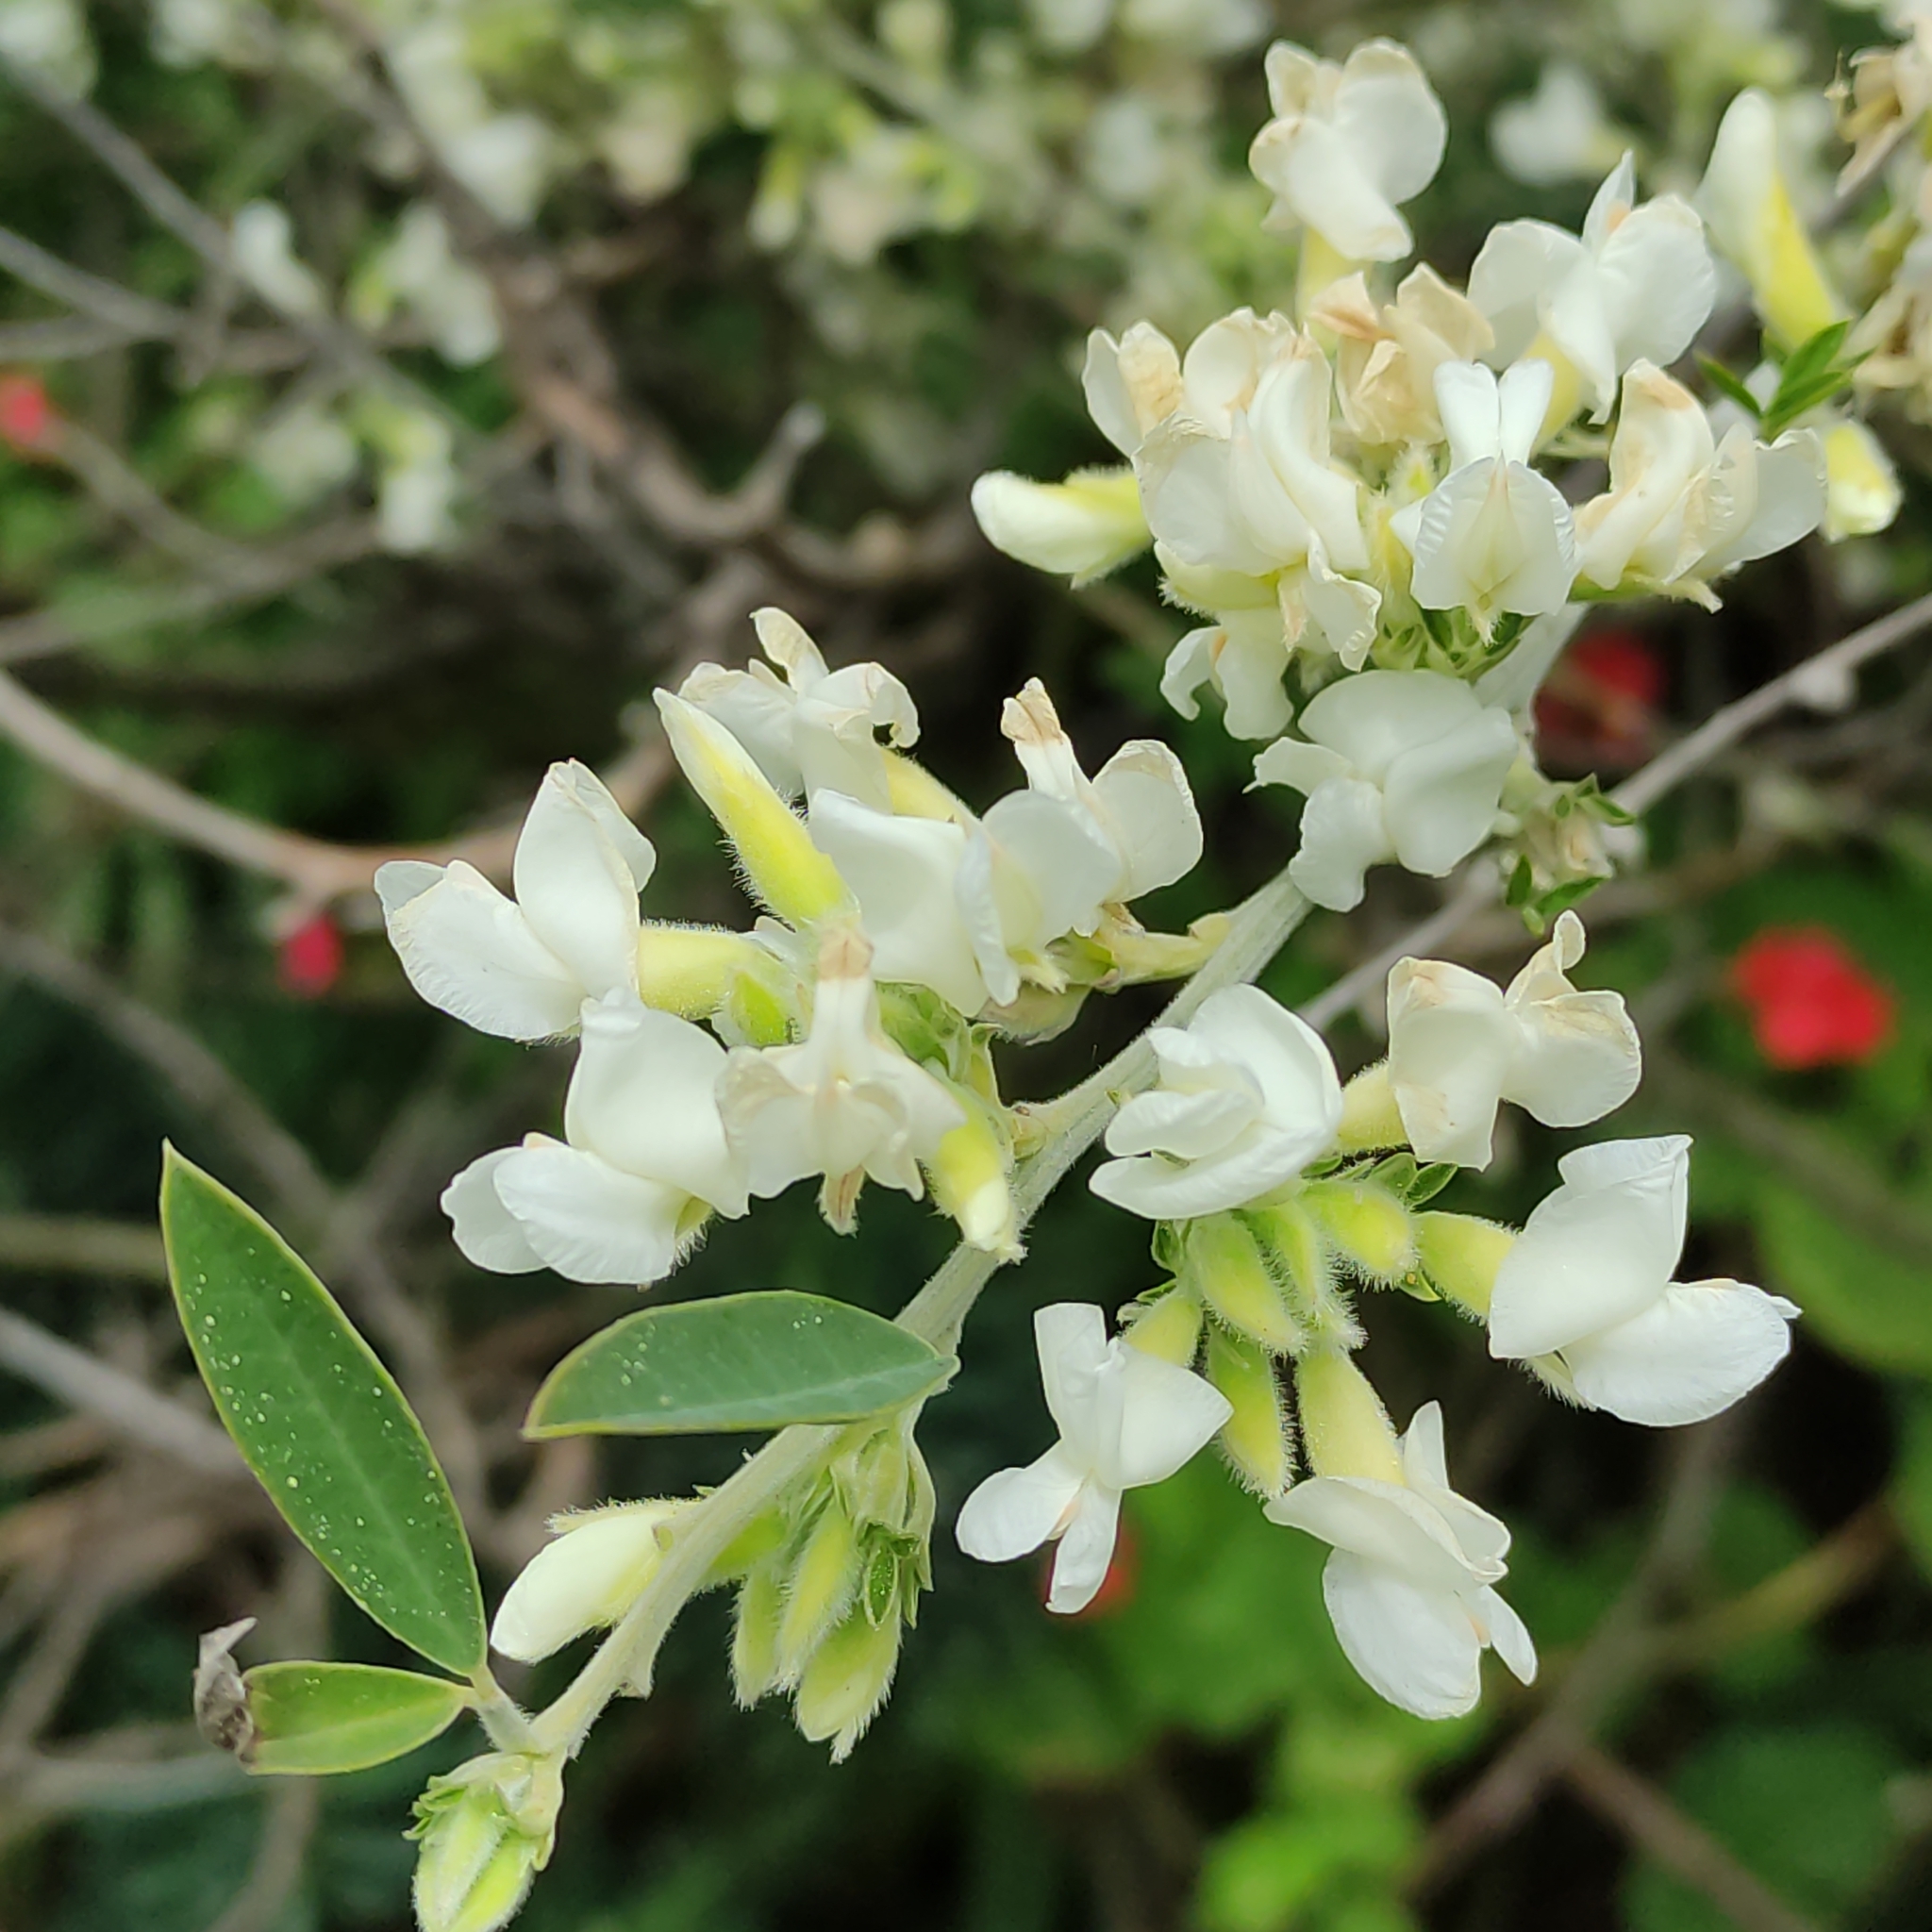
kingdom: Plantae
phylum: Tracheophyta
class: Magnoliopsida
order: Fabales
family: Fabaceae
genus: Chamaecytisus
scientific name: Chamaecytisus prolifer
